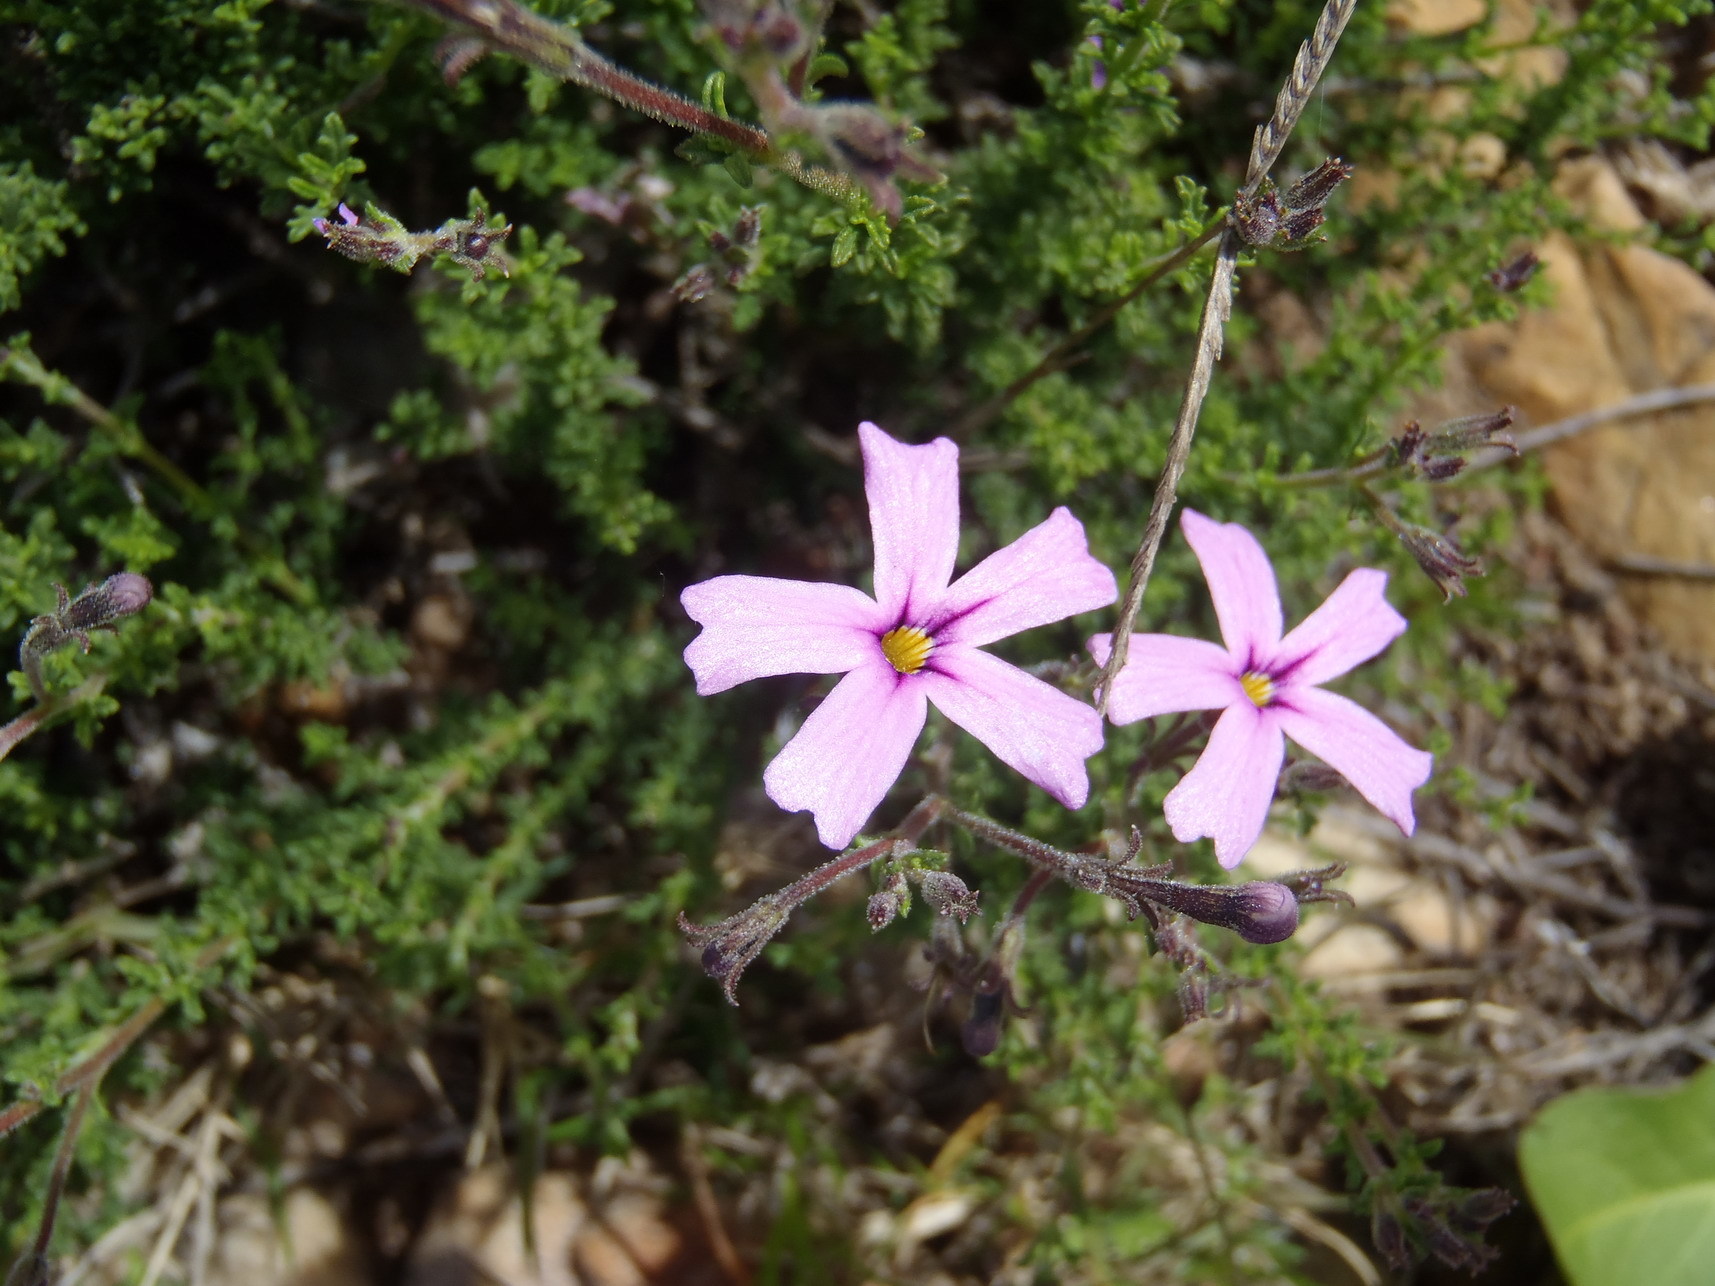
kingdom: Plantae
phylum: Tracheophyta
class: Magnoliopsida
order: Lamiales
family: Scrophulariaceae
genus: Jamesbrittenia
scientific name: Jamesbrittenia tortuosa
